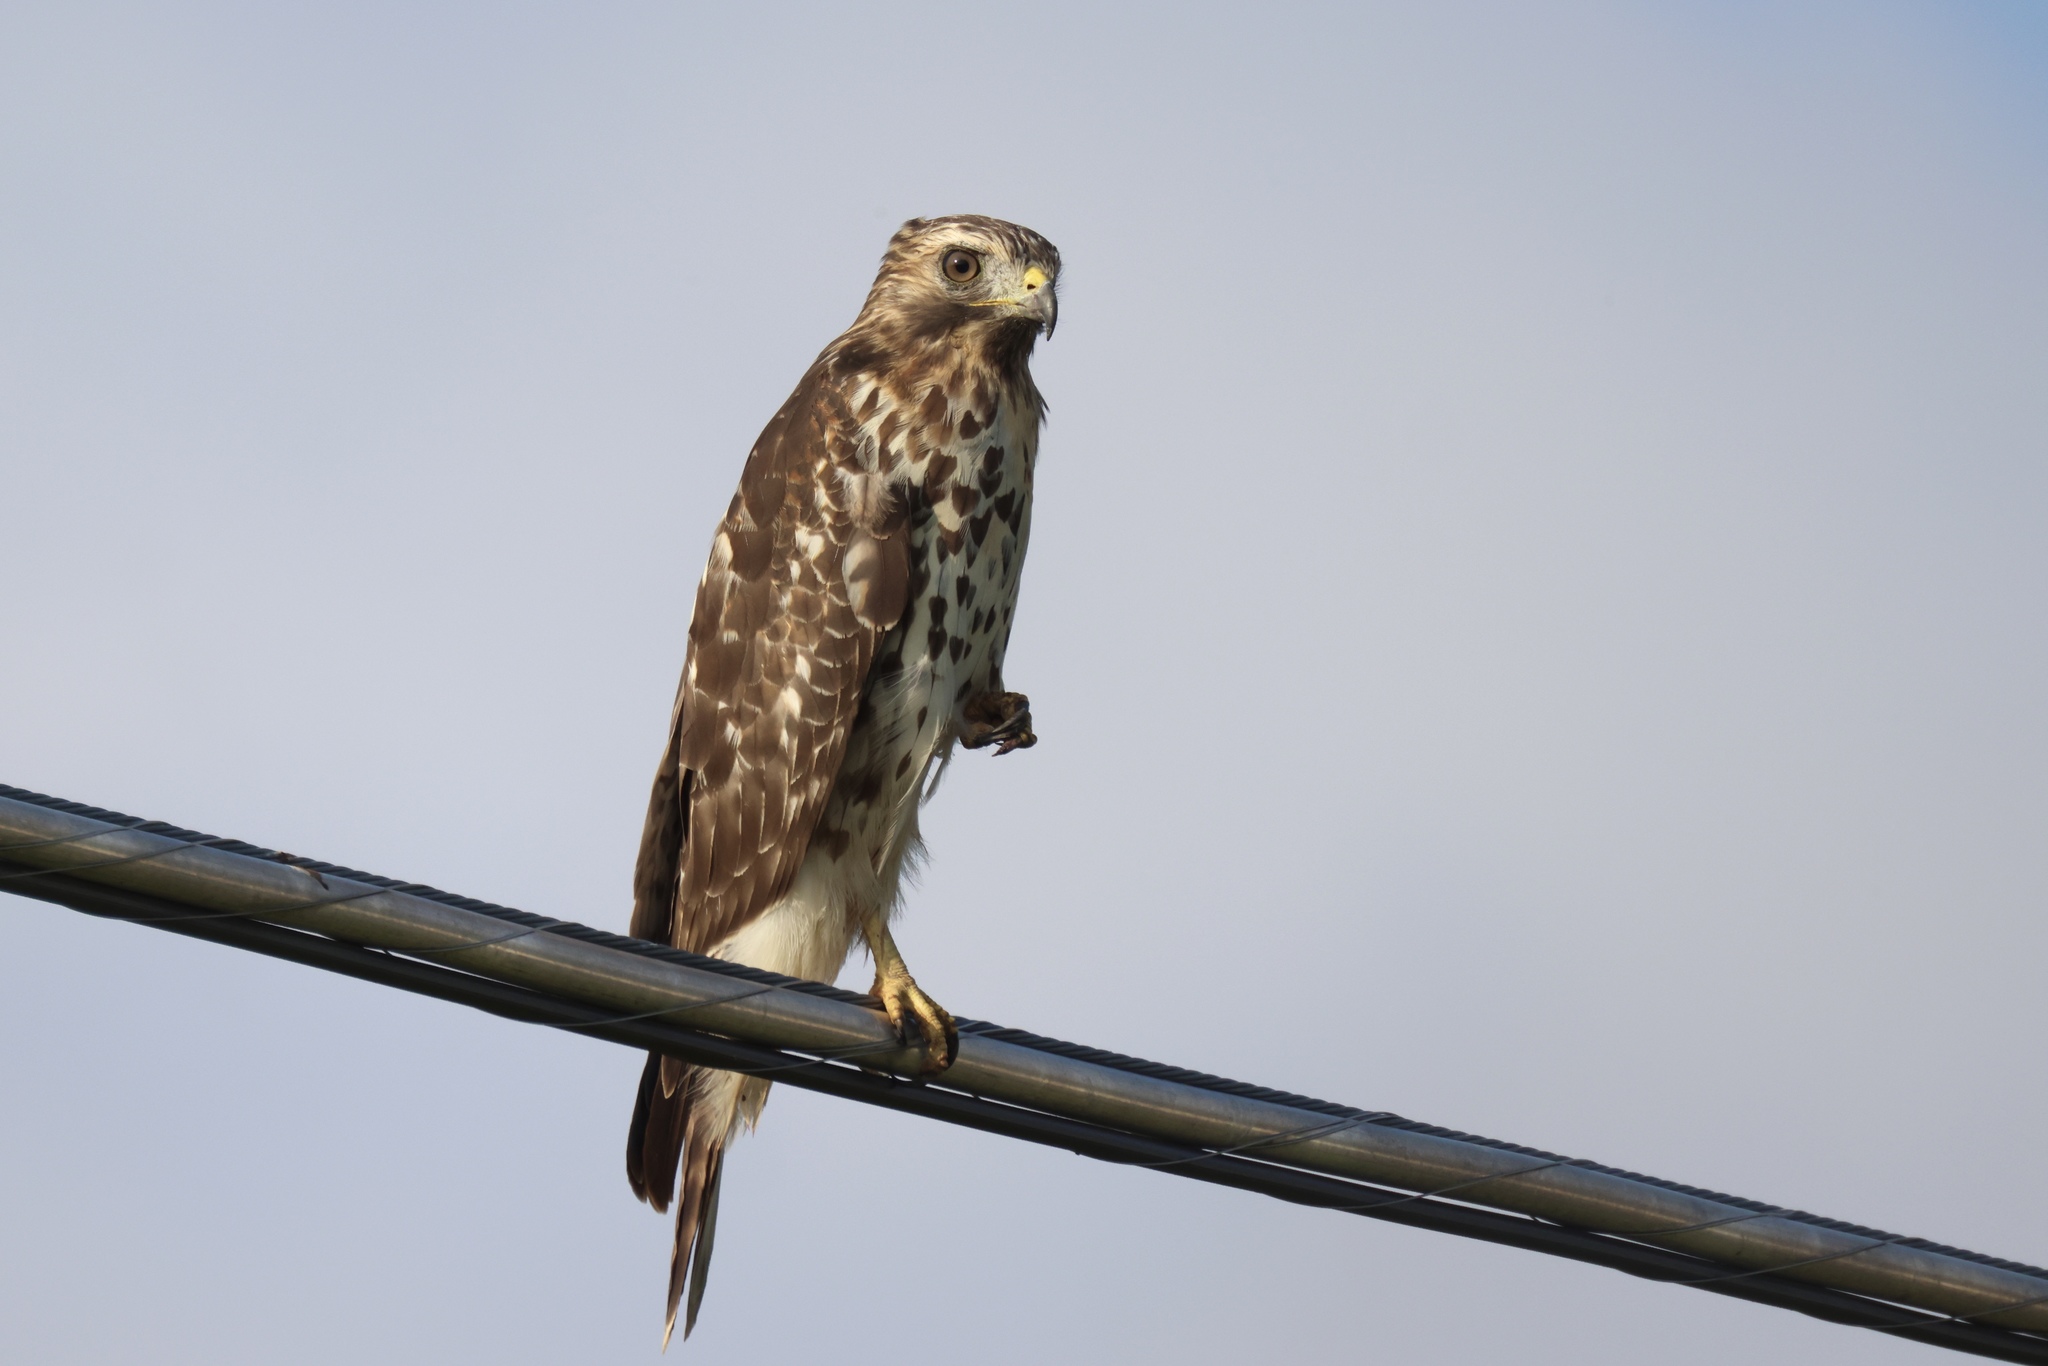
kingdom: Animalia
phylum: Chordata
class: Aves
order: Accipitriformes
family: Accipitridae
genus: Buteo
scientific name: Buteo lineatus
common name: Red-shouldered hawk
